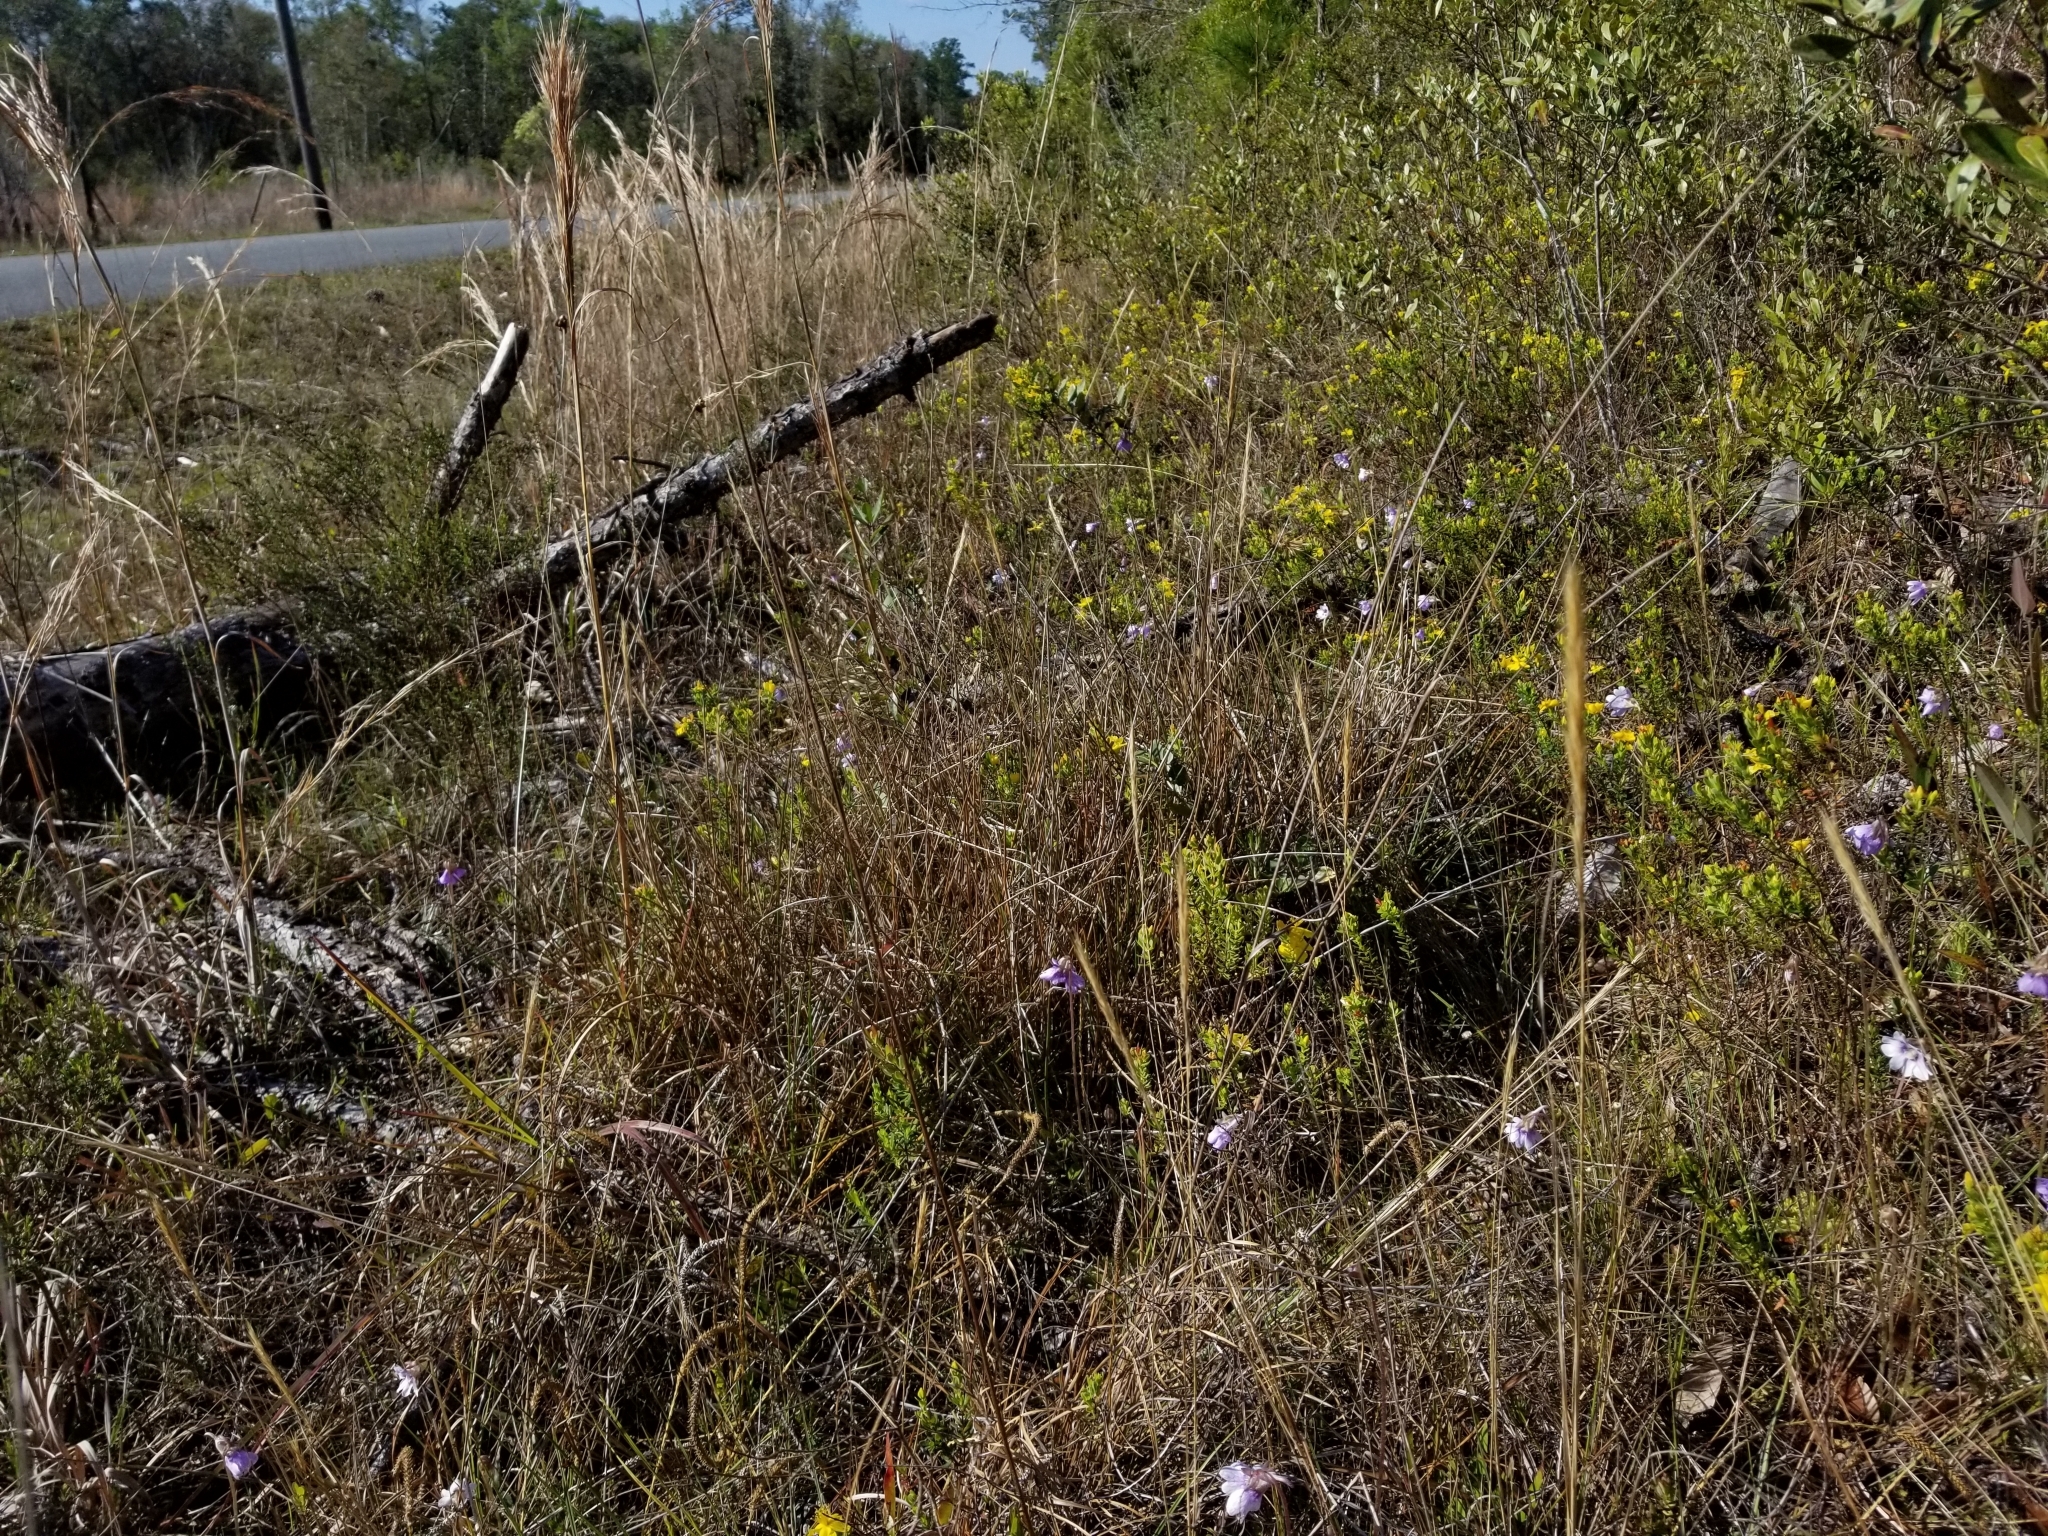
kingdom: Plantae
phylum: Tracheophyta
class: Magnoliopsida
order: Lamiales
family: Lentibulariaceae
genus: Pinguicula
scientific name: Pinguicula caerulea
